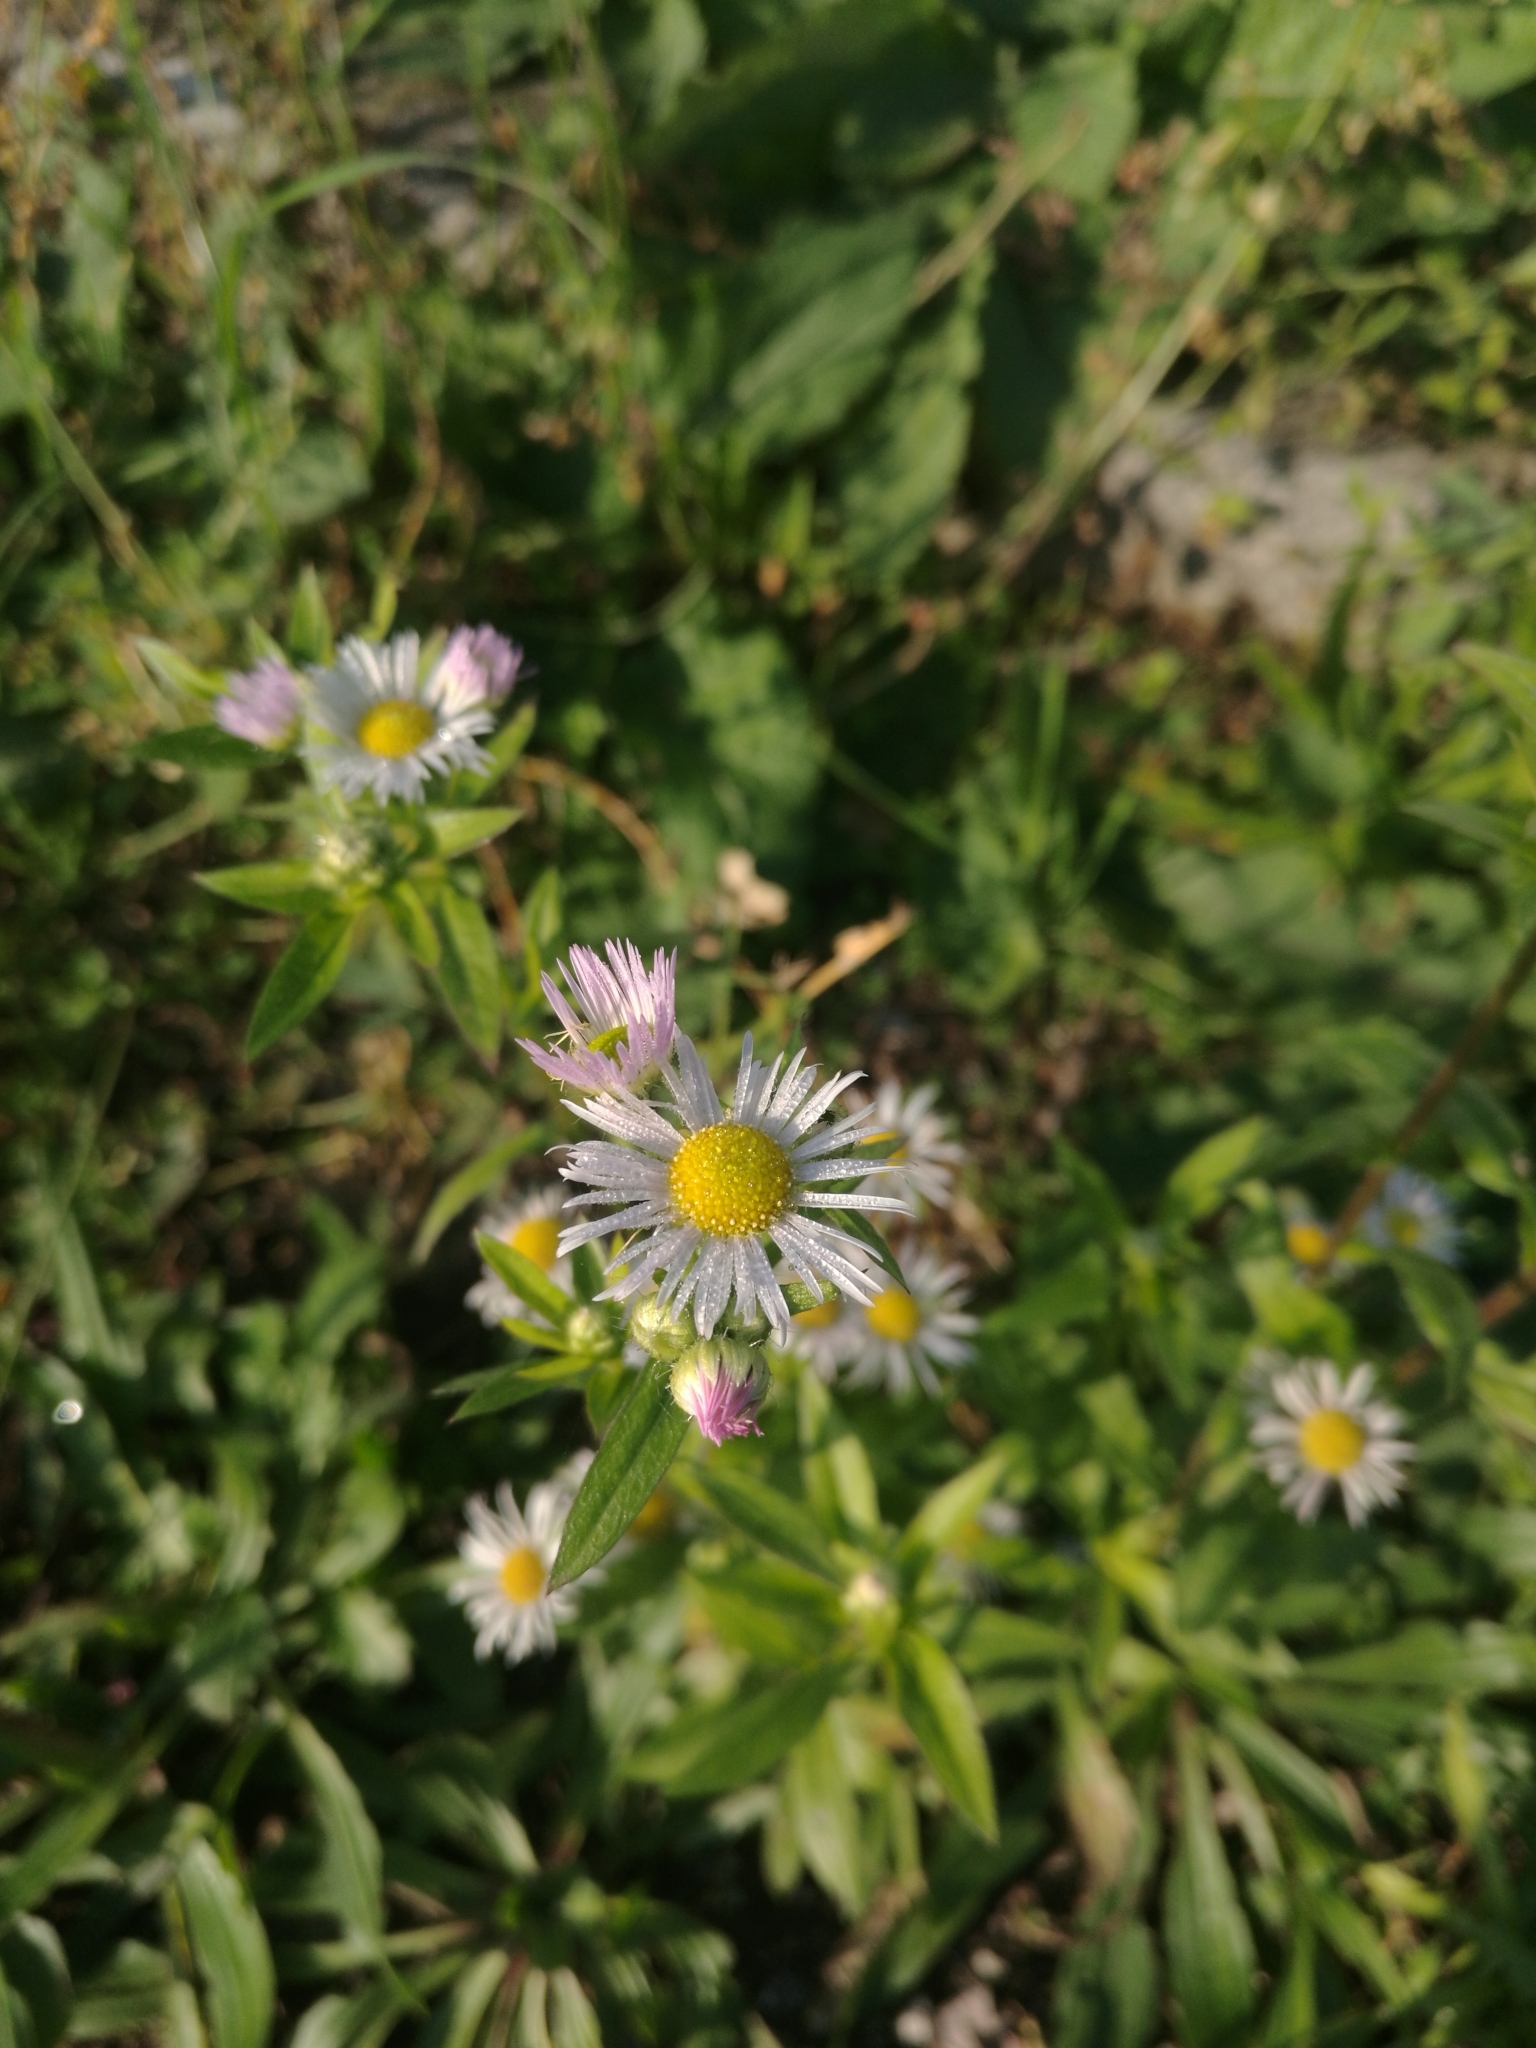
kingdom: Plantae
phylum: Tracheophyta
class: Magnoliopsida
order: Asterales
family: Asteraceae
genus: Erigeron
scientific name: Erigeron annuus
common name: Tall fleabane
